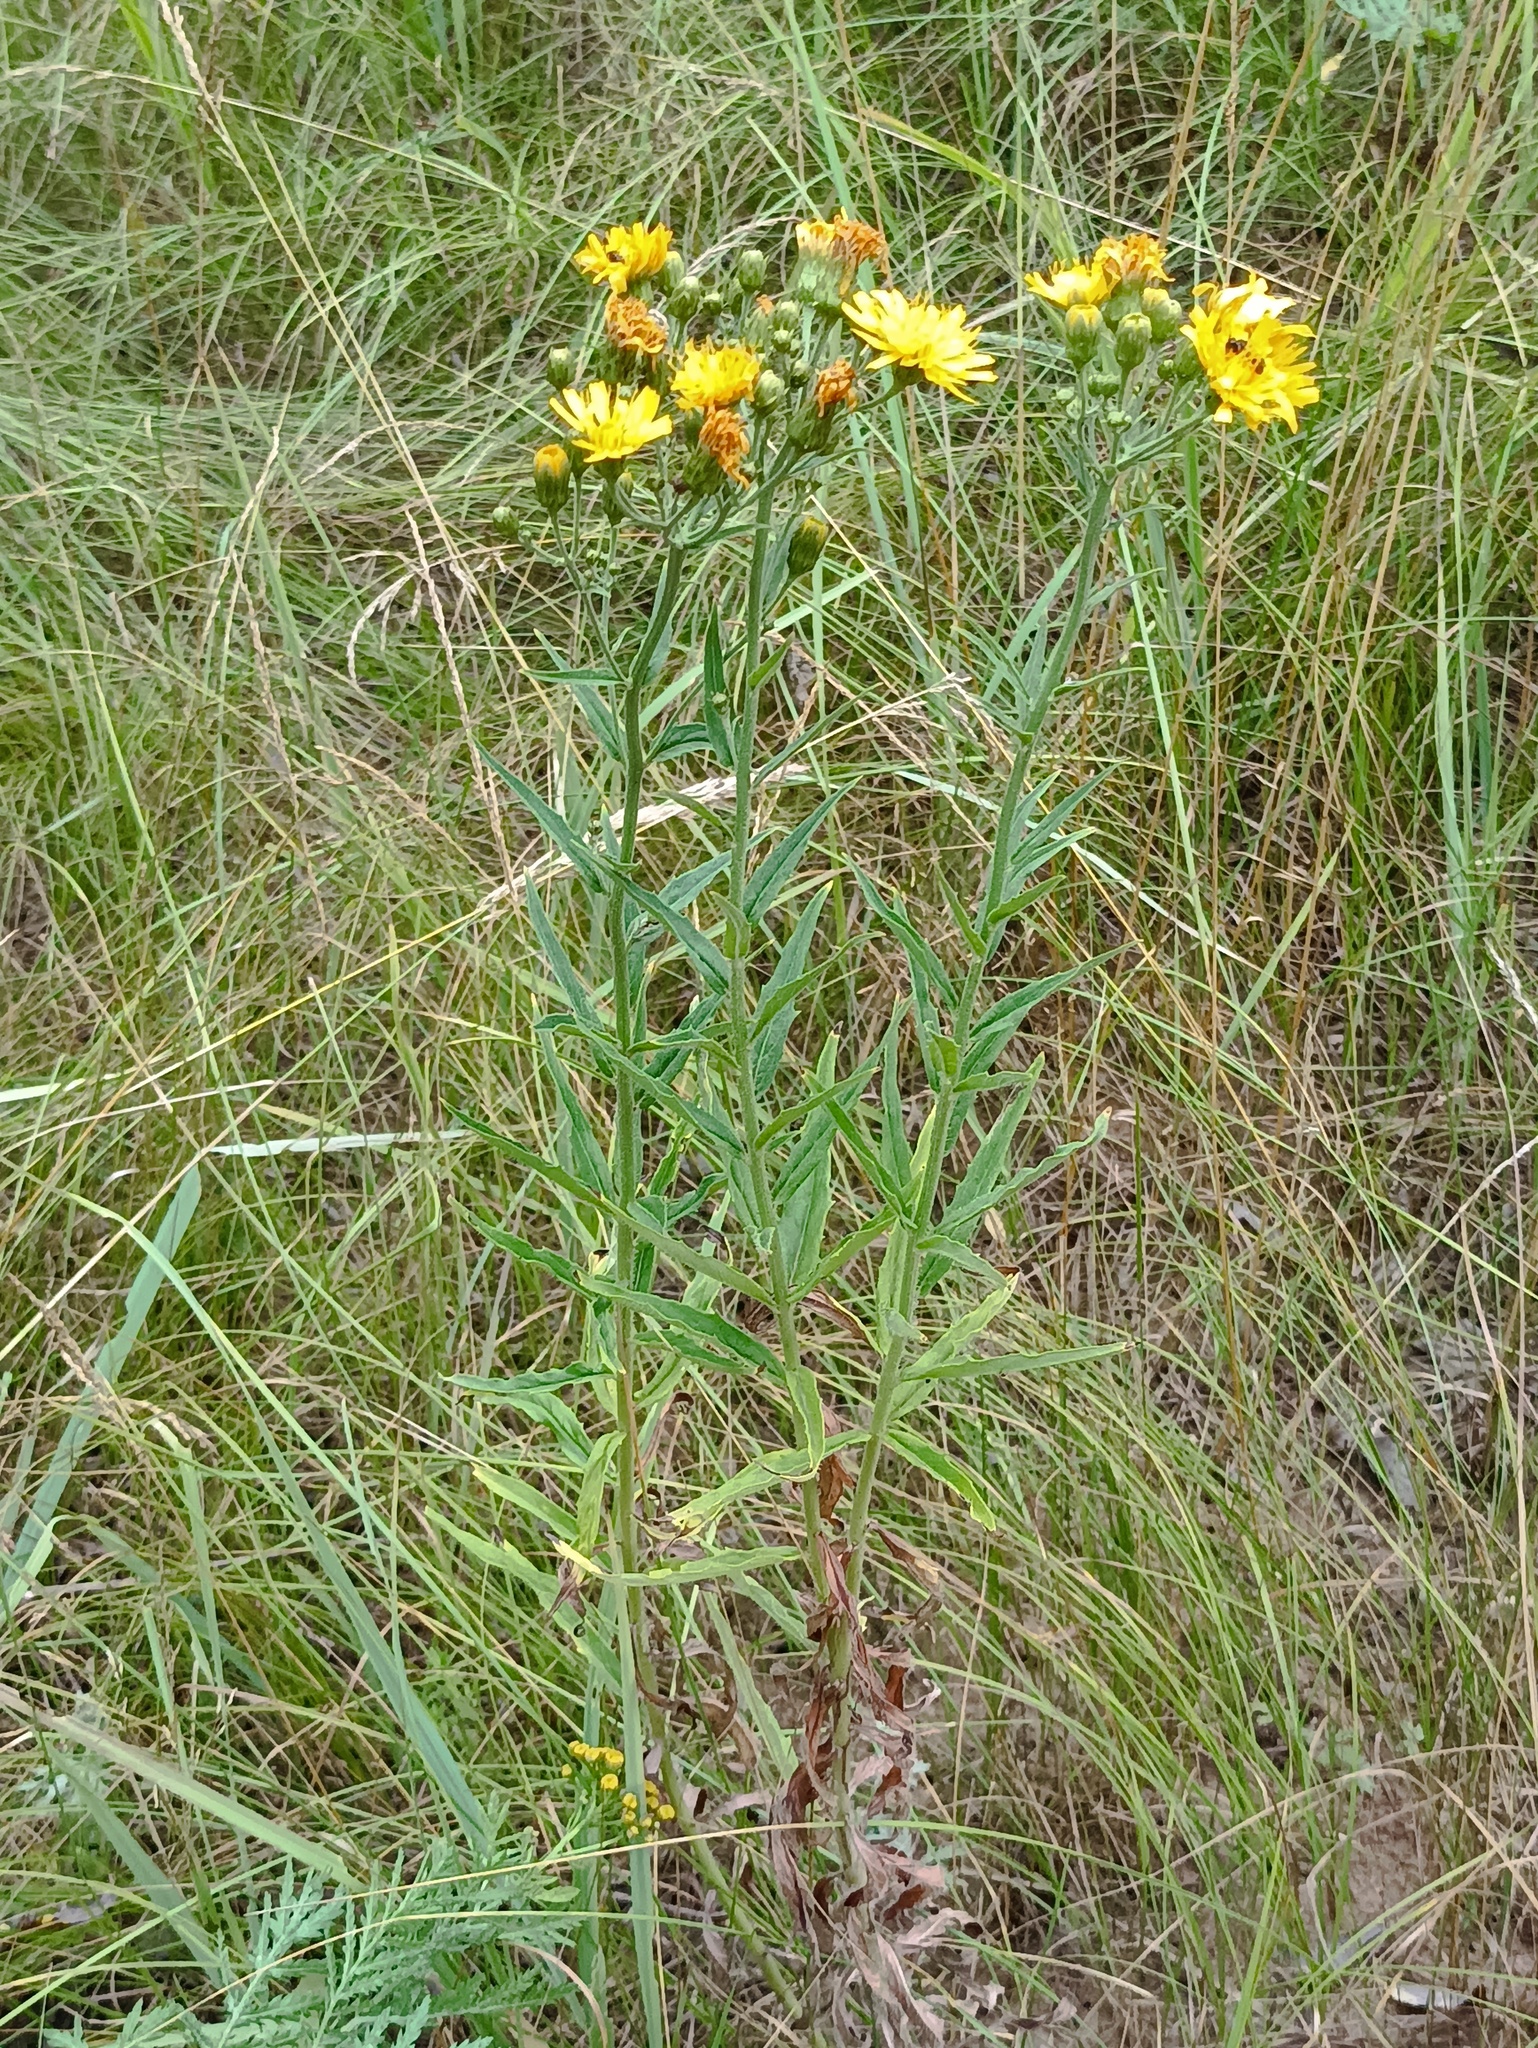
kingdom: Plantae
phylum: Tracheophyta
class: Magnoliopsida
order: Asterales
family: Asteraceae
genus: Hieracium
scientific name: Hieracium umbellatum
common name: Northern hawkweed
